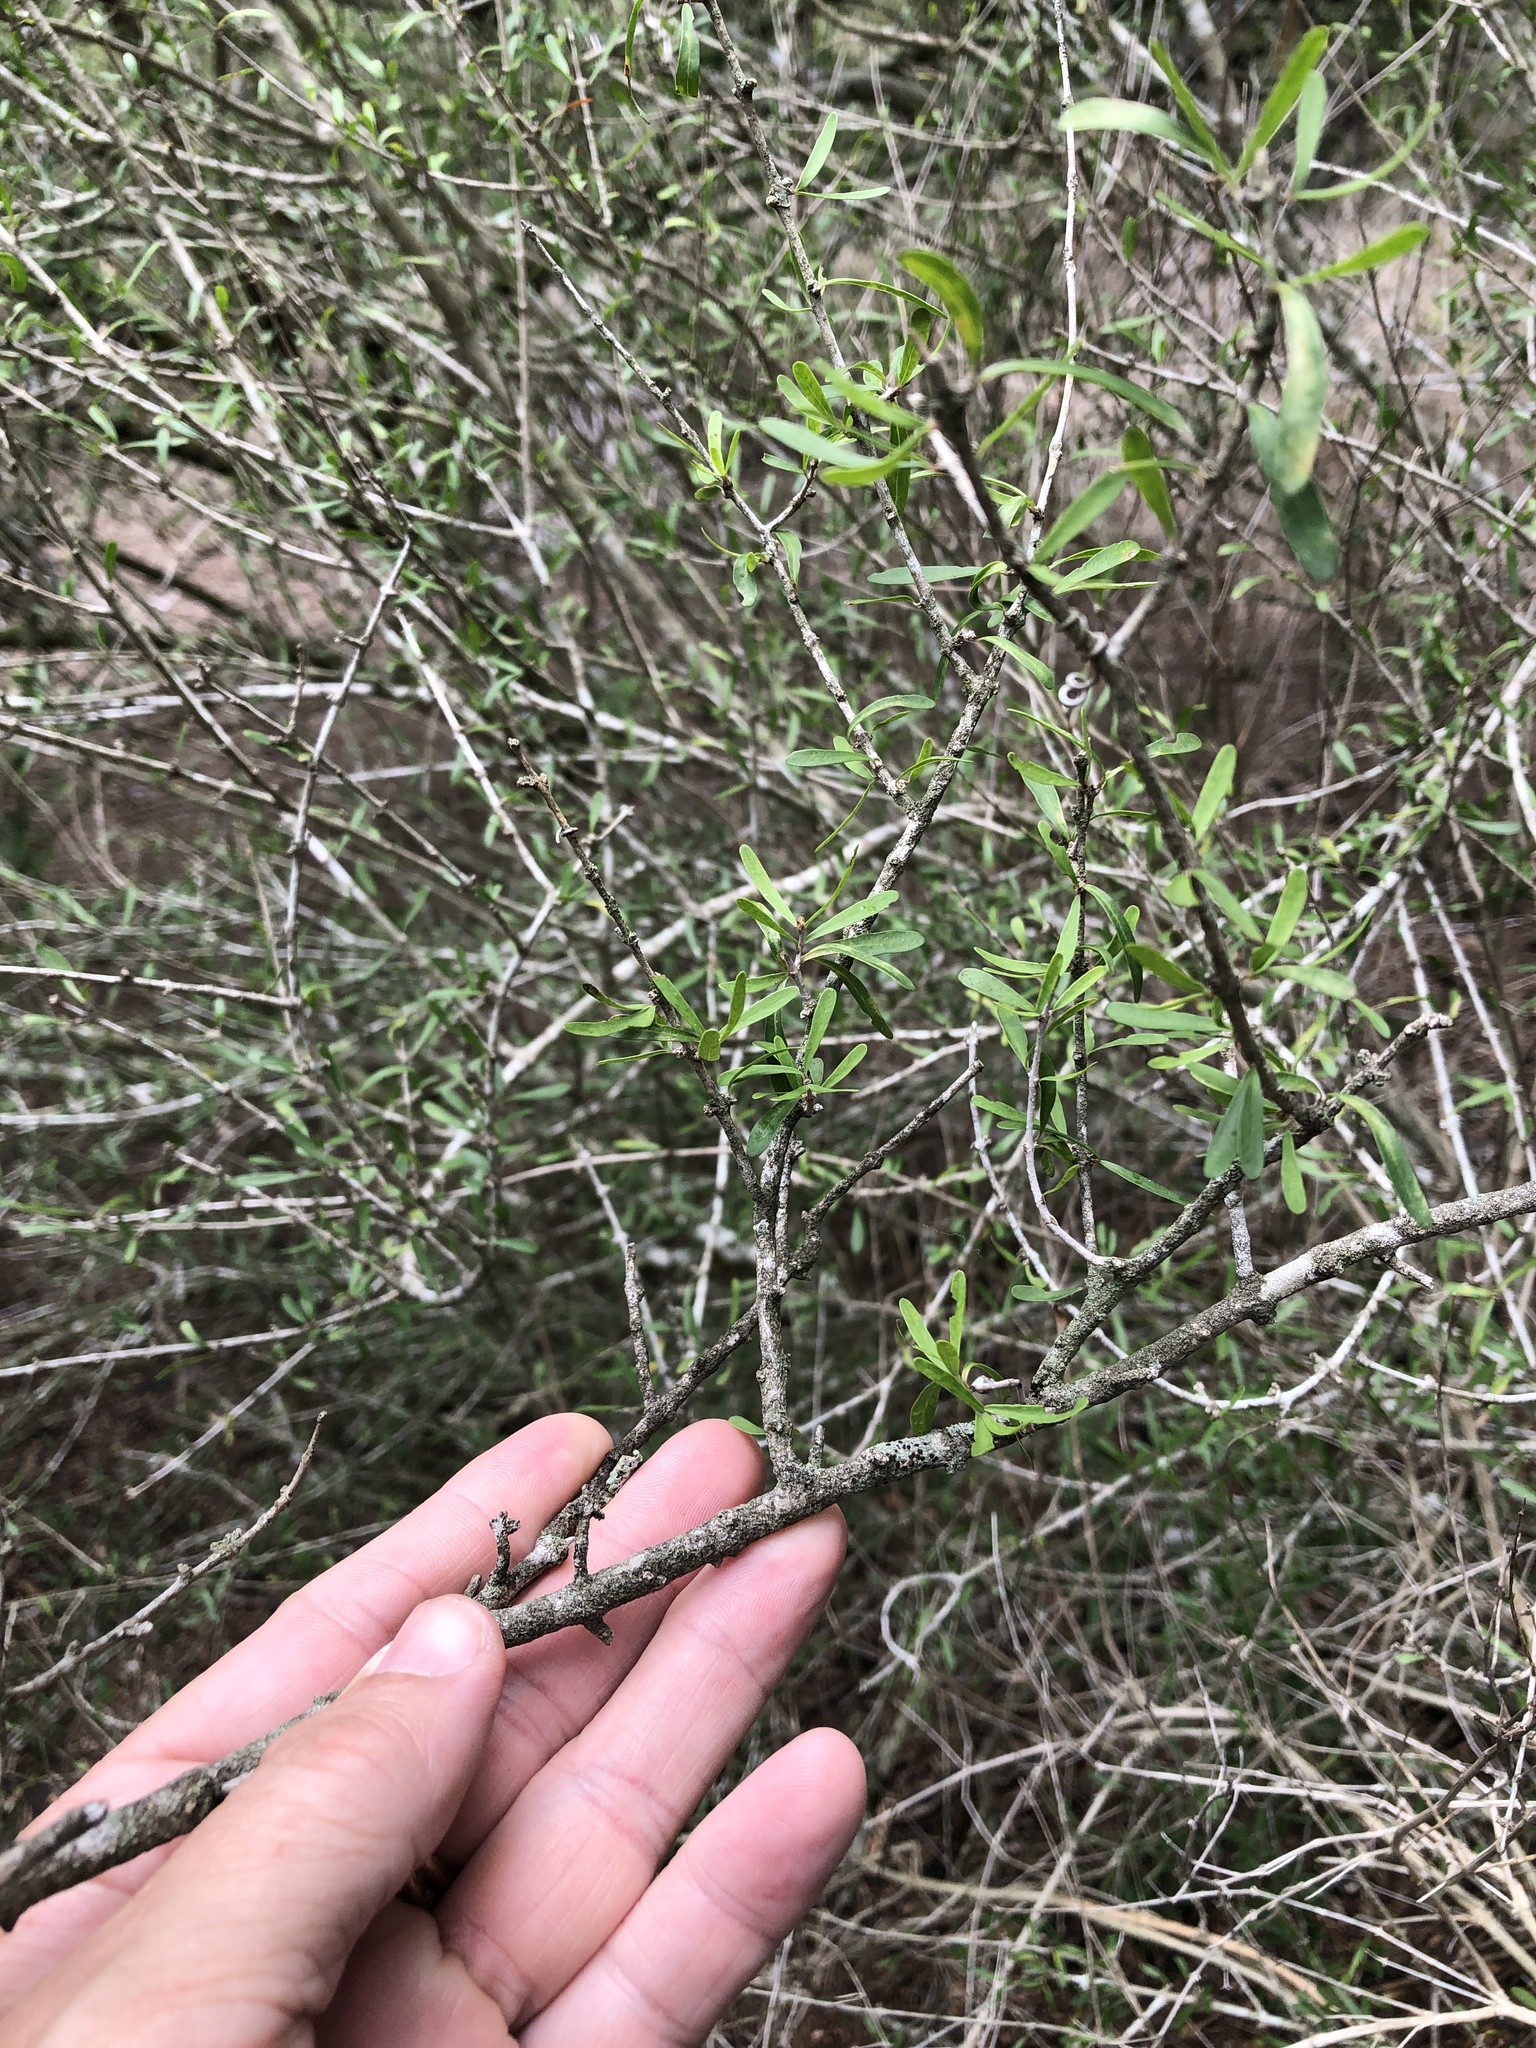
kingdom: Plantae
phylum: Tracheophyta
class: Magnoliopsida
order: Lamiales
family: Oleaceae
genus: Forestiera
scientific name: Forestiera angustifolia
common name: Elbowbush
